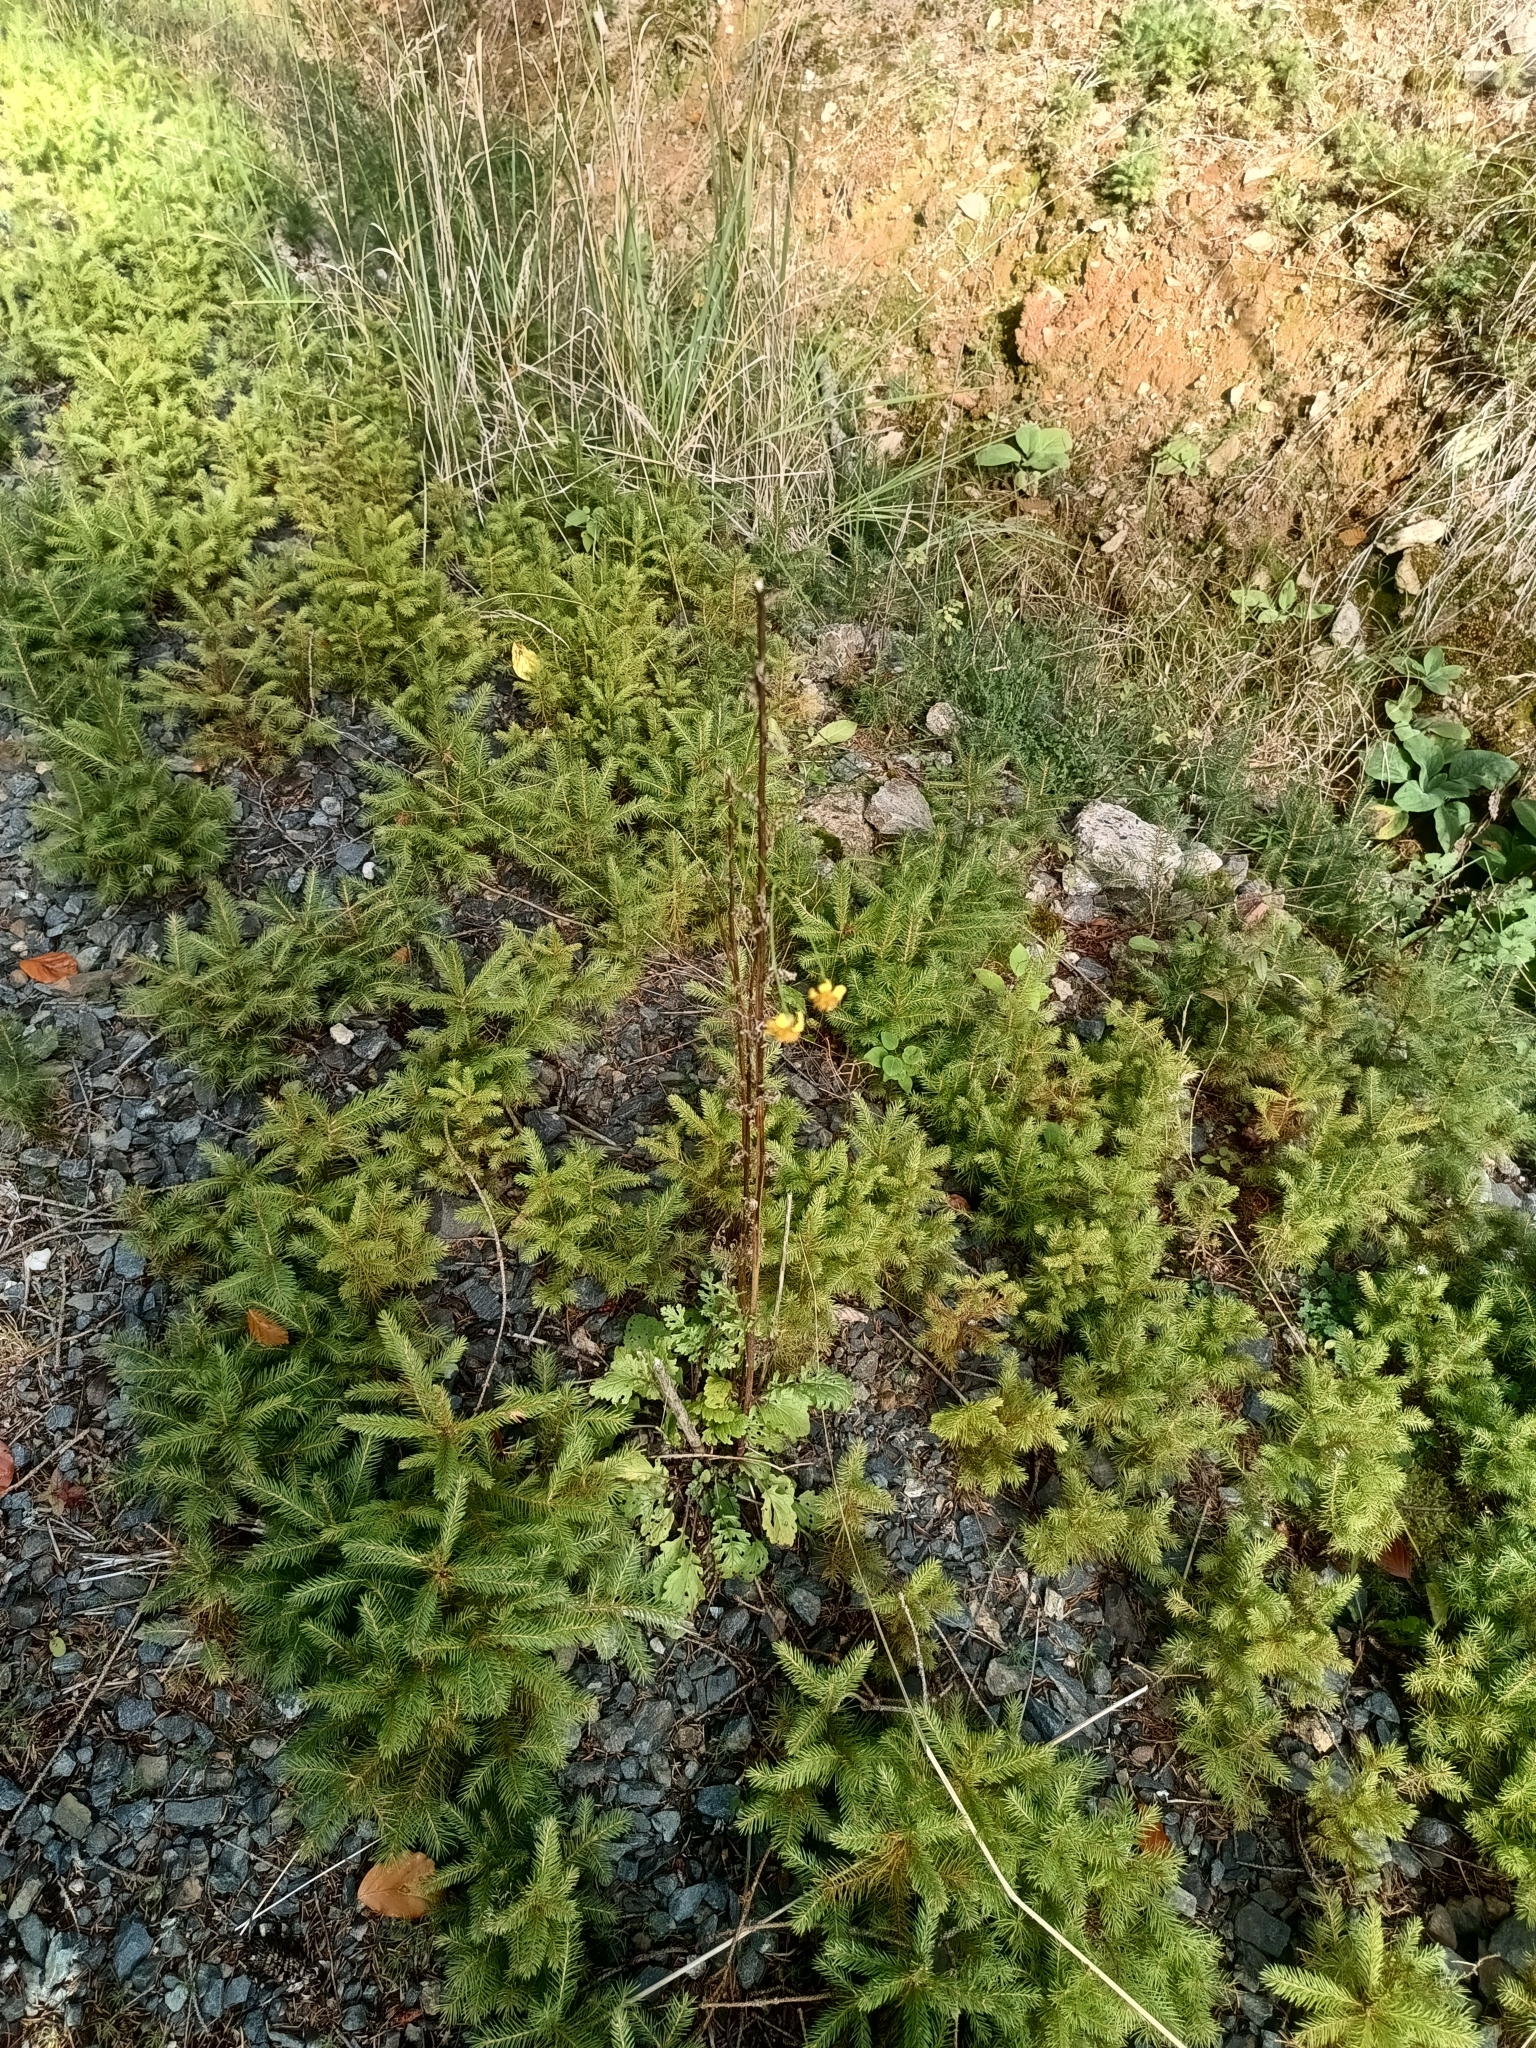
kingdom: Plantae
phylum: Tracheophyta
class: Magnoliopsida
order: Asterales
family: Asteraceae
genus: Jacobaea
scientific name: Jacobaea vulgaris
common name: Stinking willie
